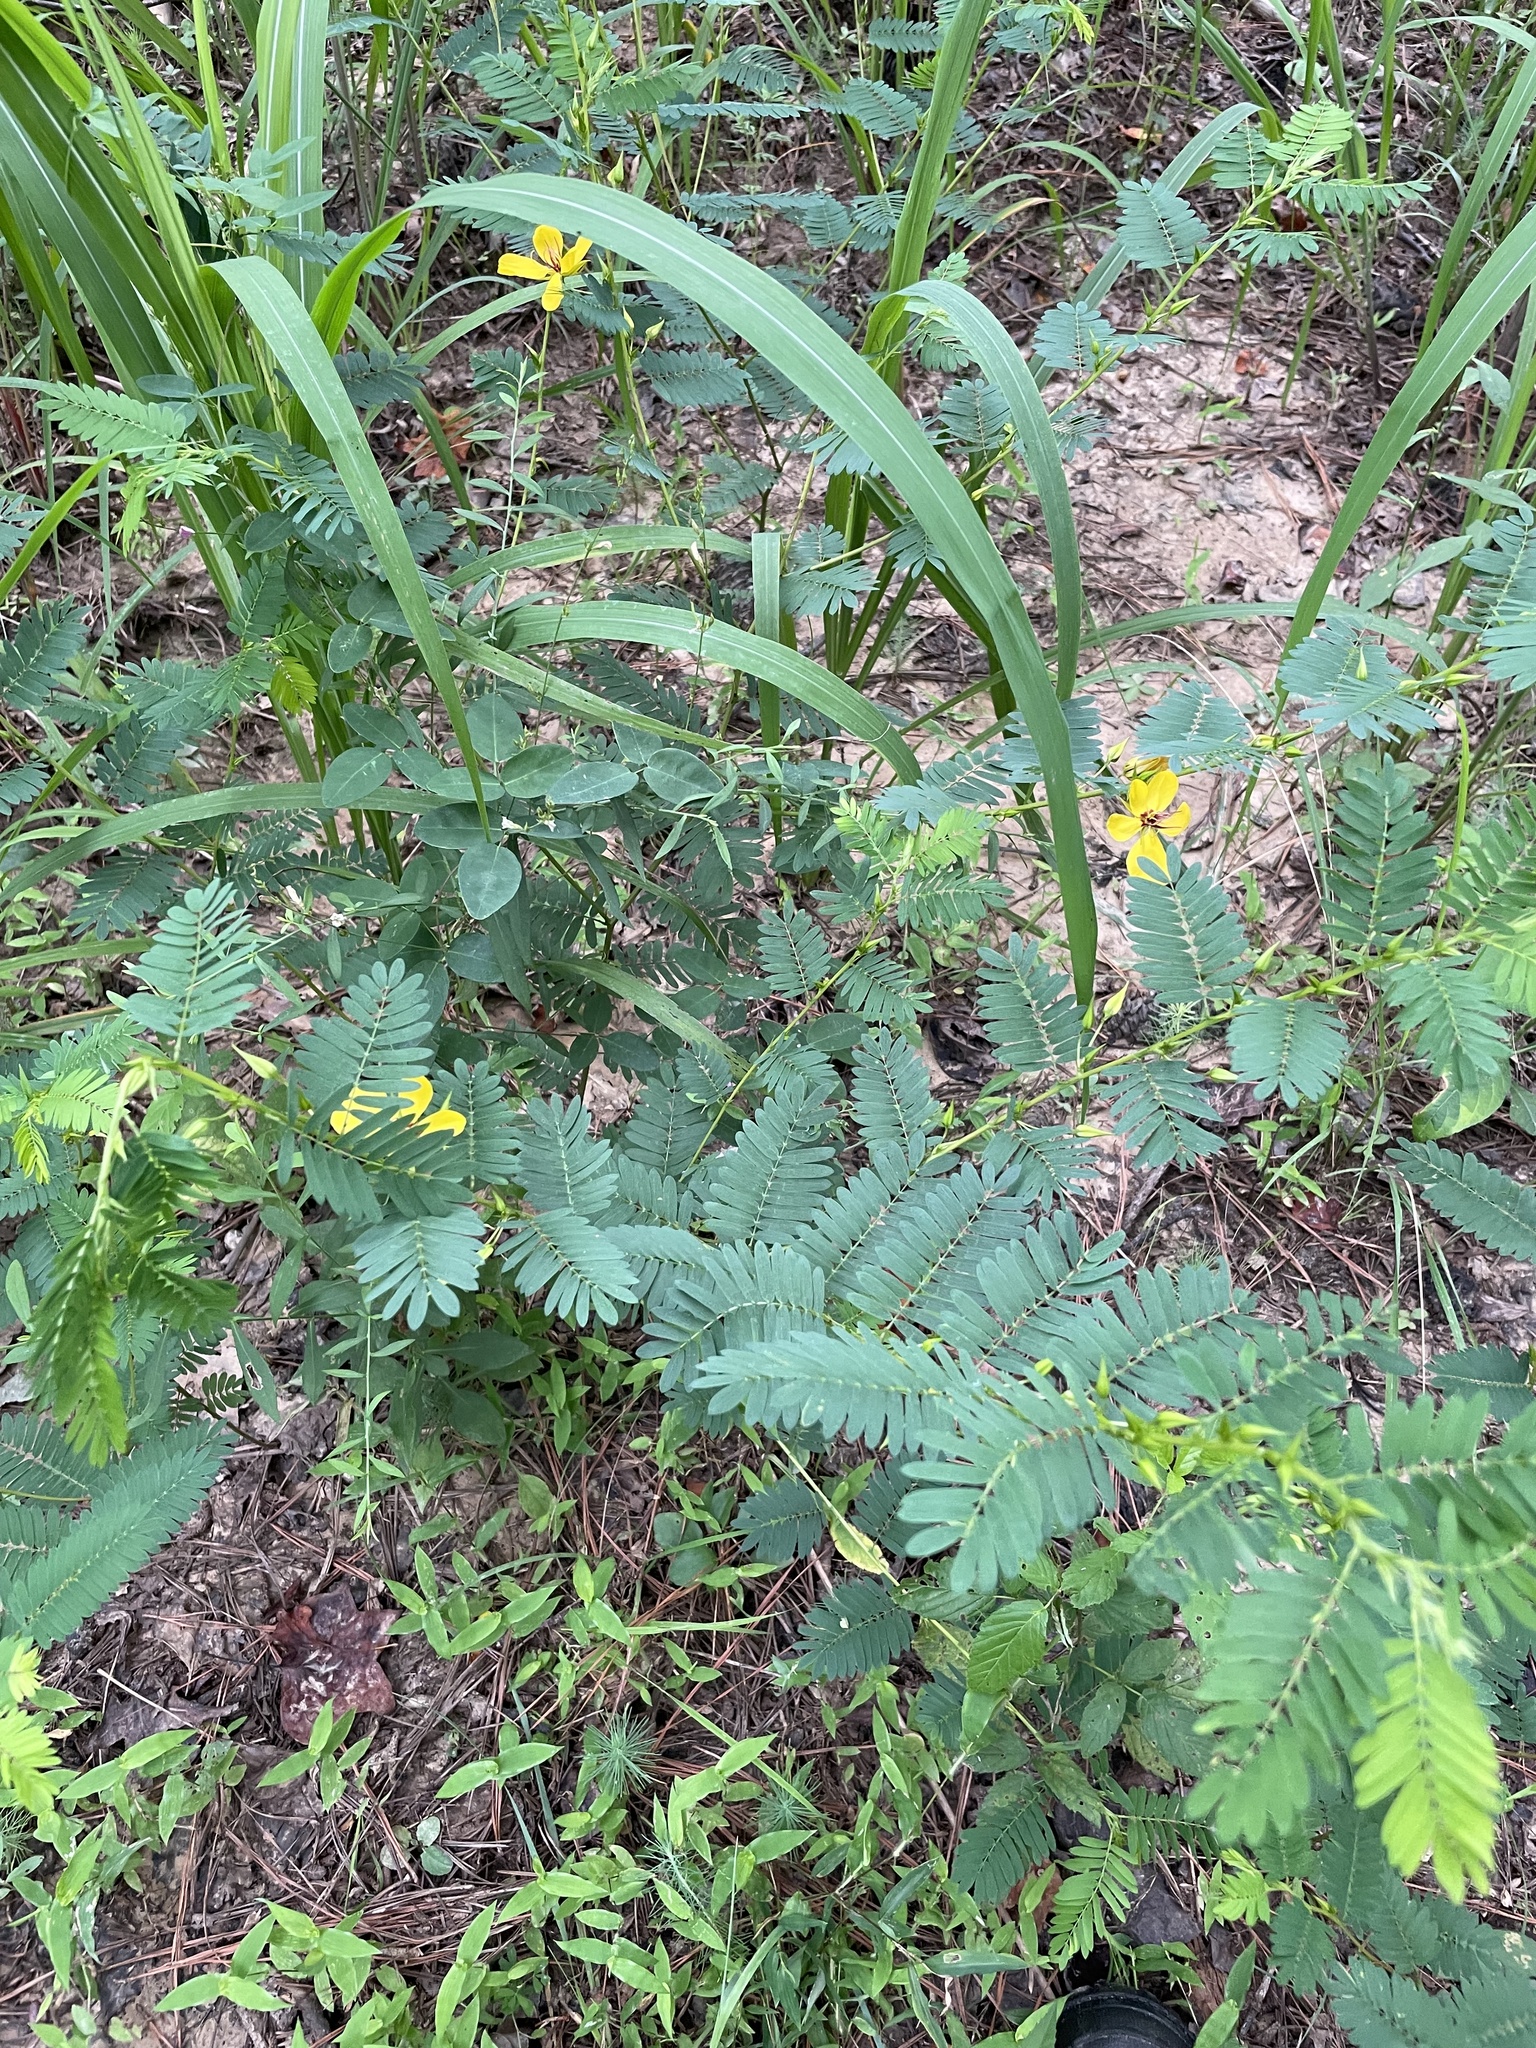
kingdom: Plantae
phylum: Tracheophyta
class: Magnoliopsida
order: Fabales
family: Fabaceae
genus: Chamaecrista
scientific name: Chamaecrista fasciculata
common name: Golden cassia
